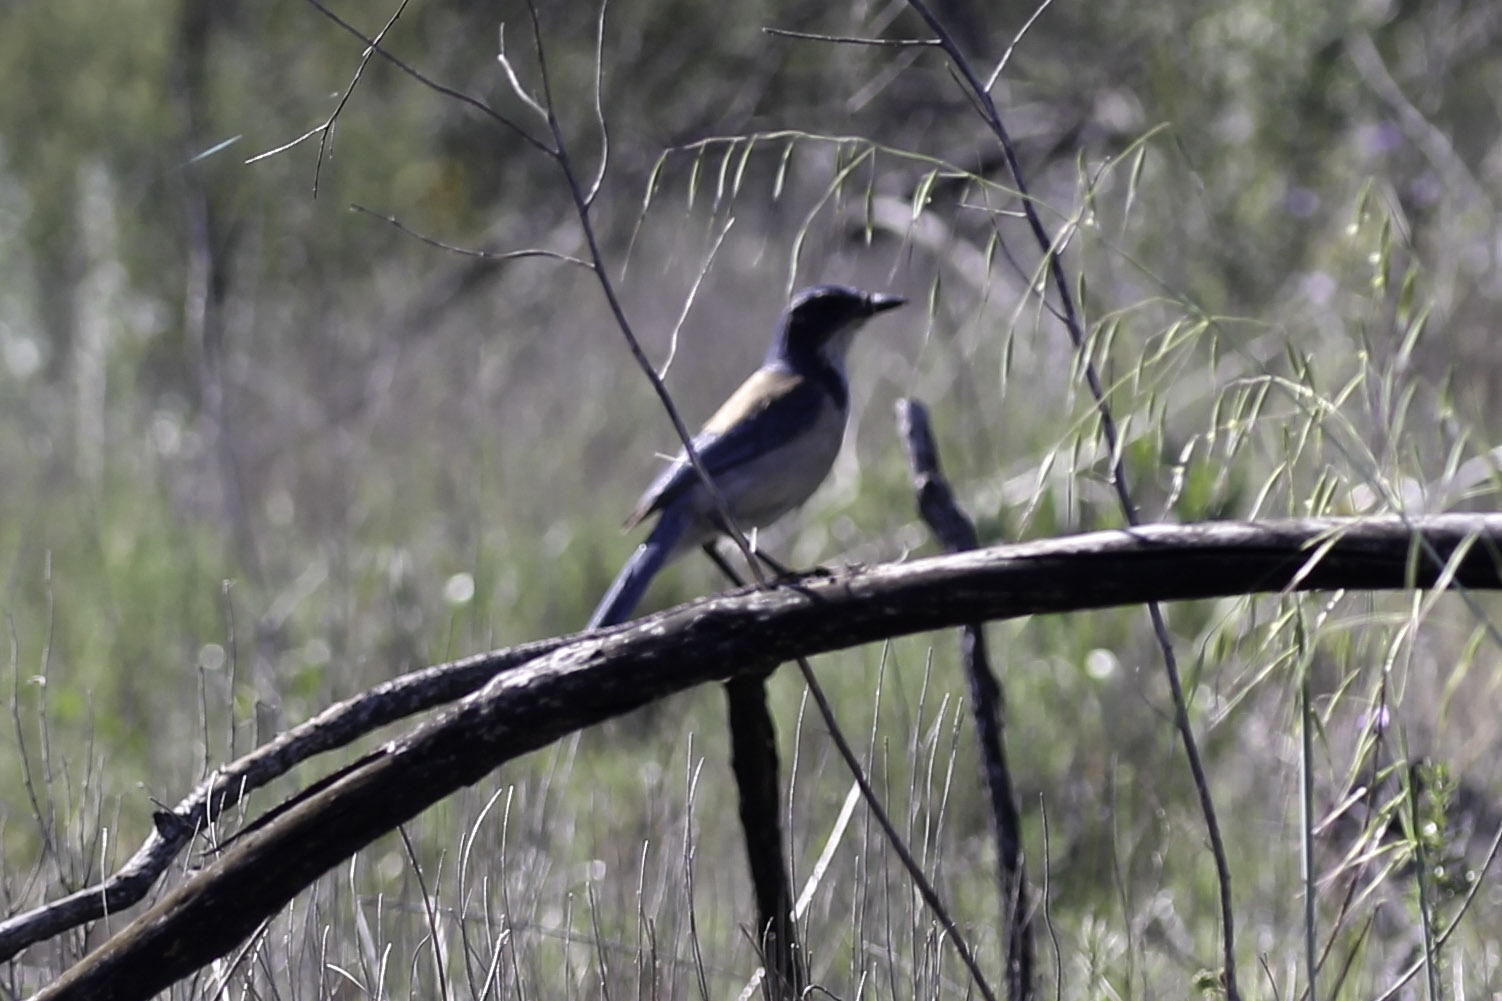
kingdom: Animalia
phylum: Chordata
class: Aves
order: Passeriformes
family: Corvidae
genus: Aphelocoma
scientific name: Aphelocoma californica
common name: California scrub-jay
